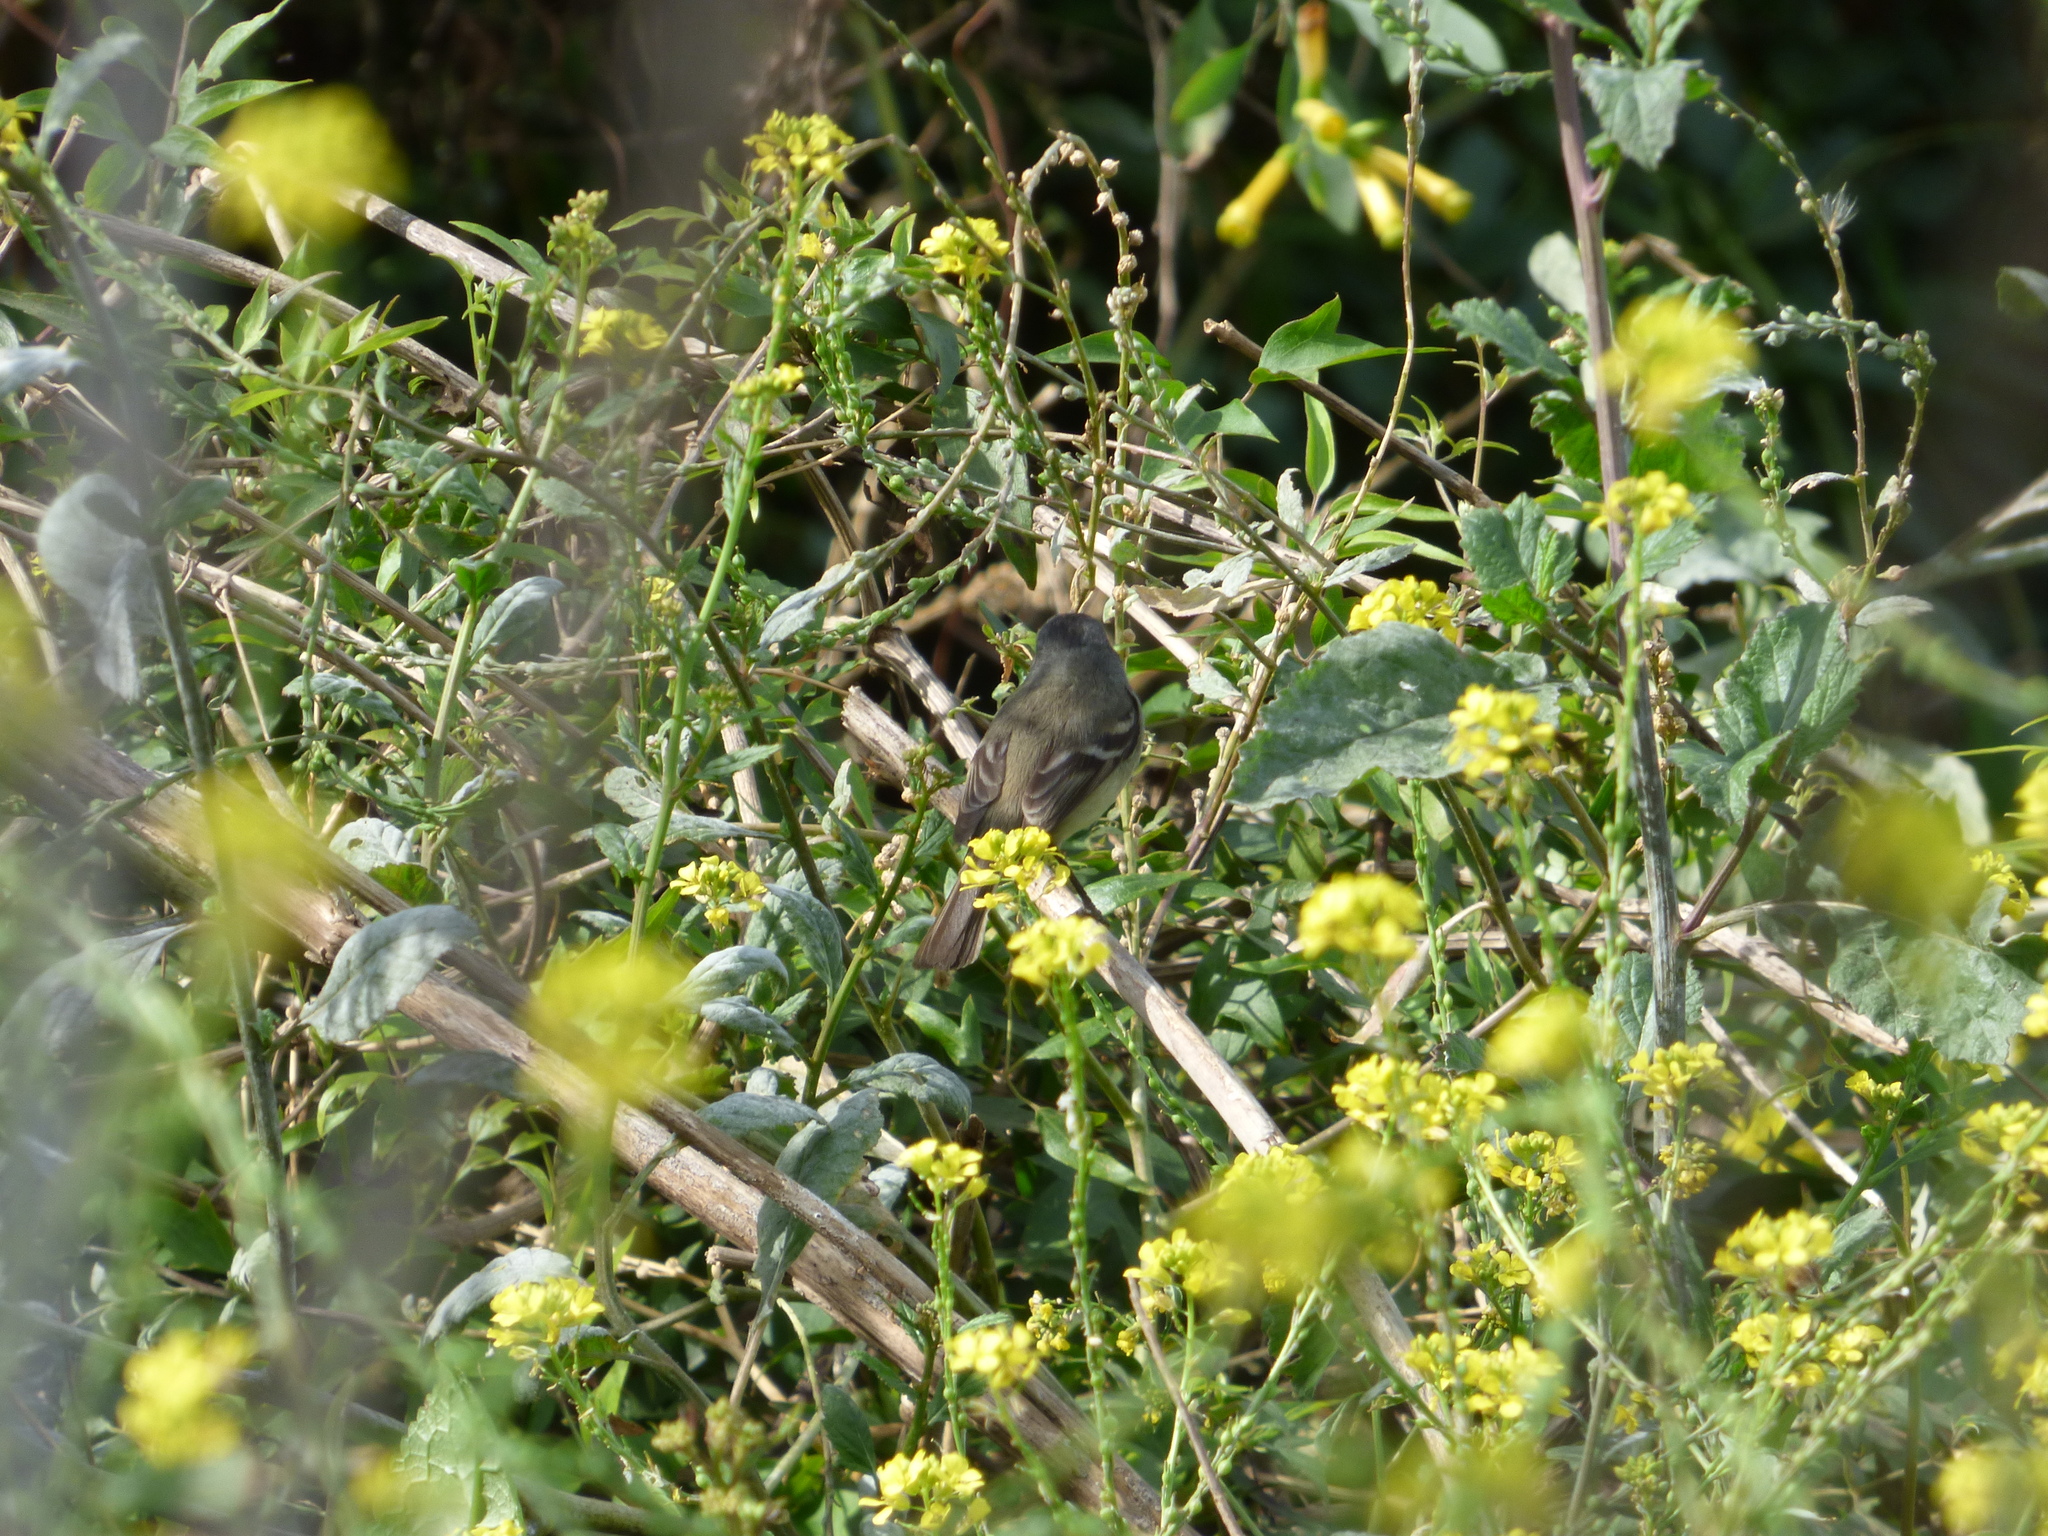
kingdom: Animalia
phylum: Chordata
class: Aves
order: Passeriformes
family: Tyrannidae
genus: Serpophaga
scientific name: Serpophaga griseicapilla
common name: Straneck's tyrannulet
